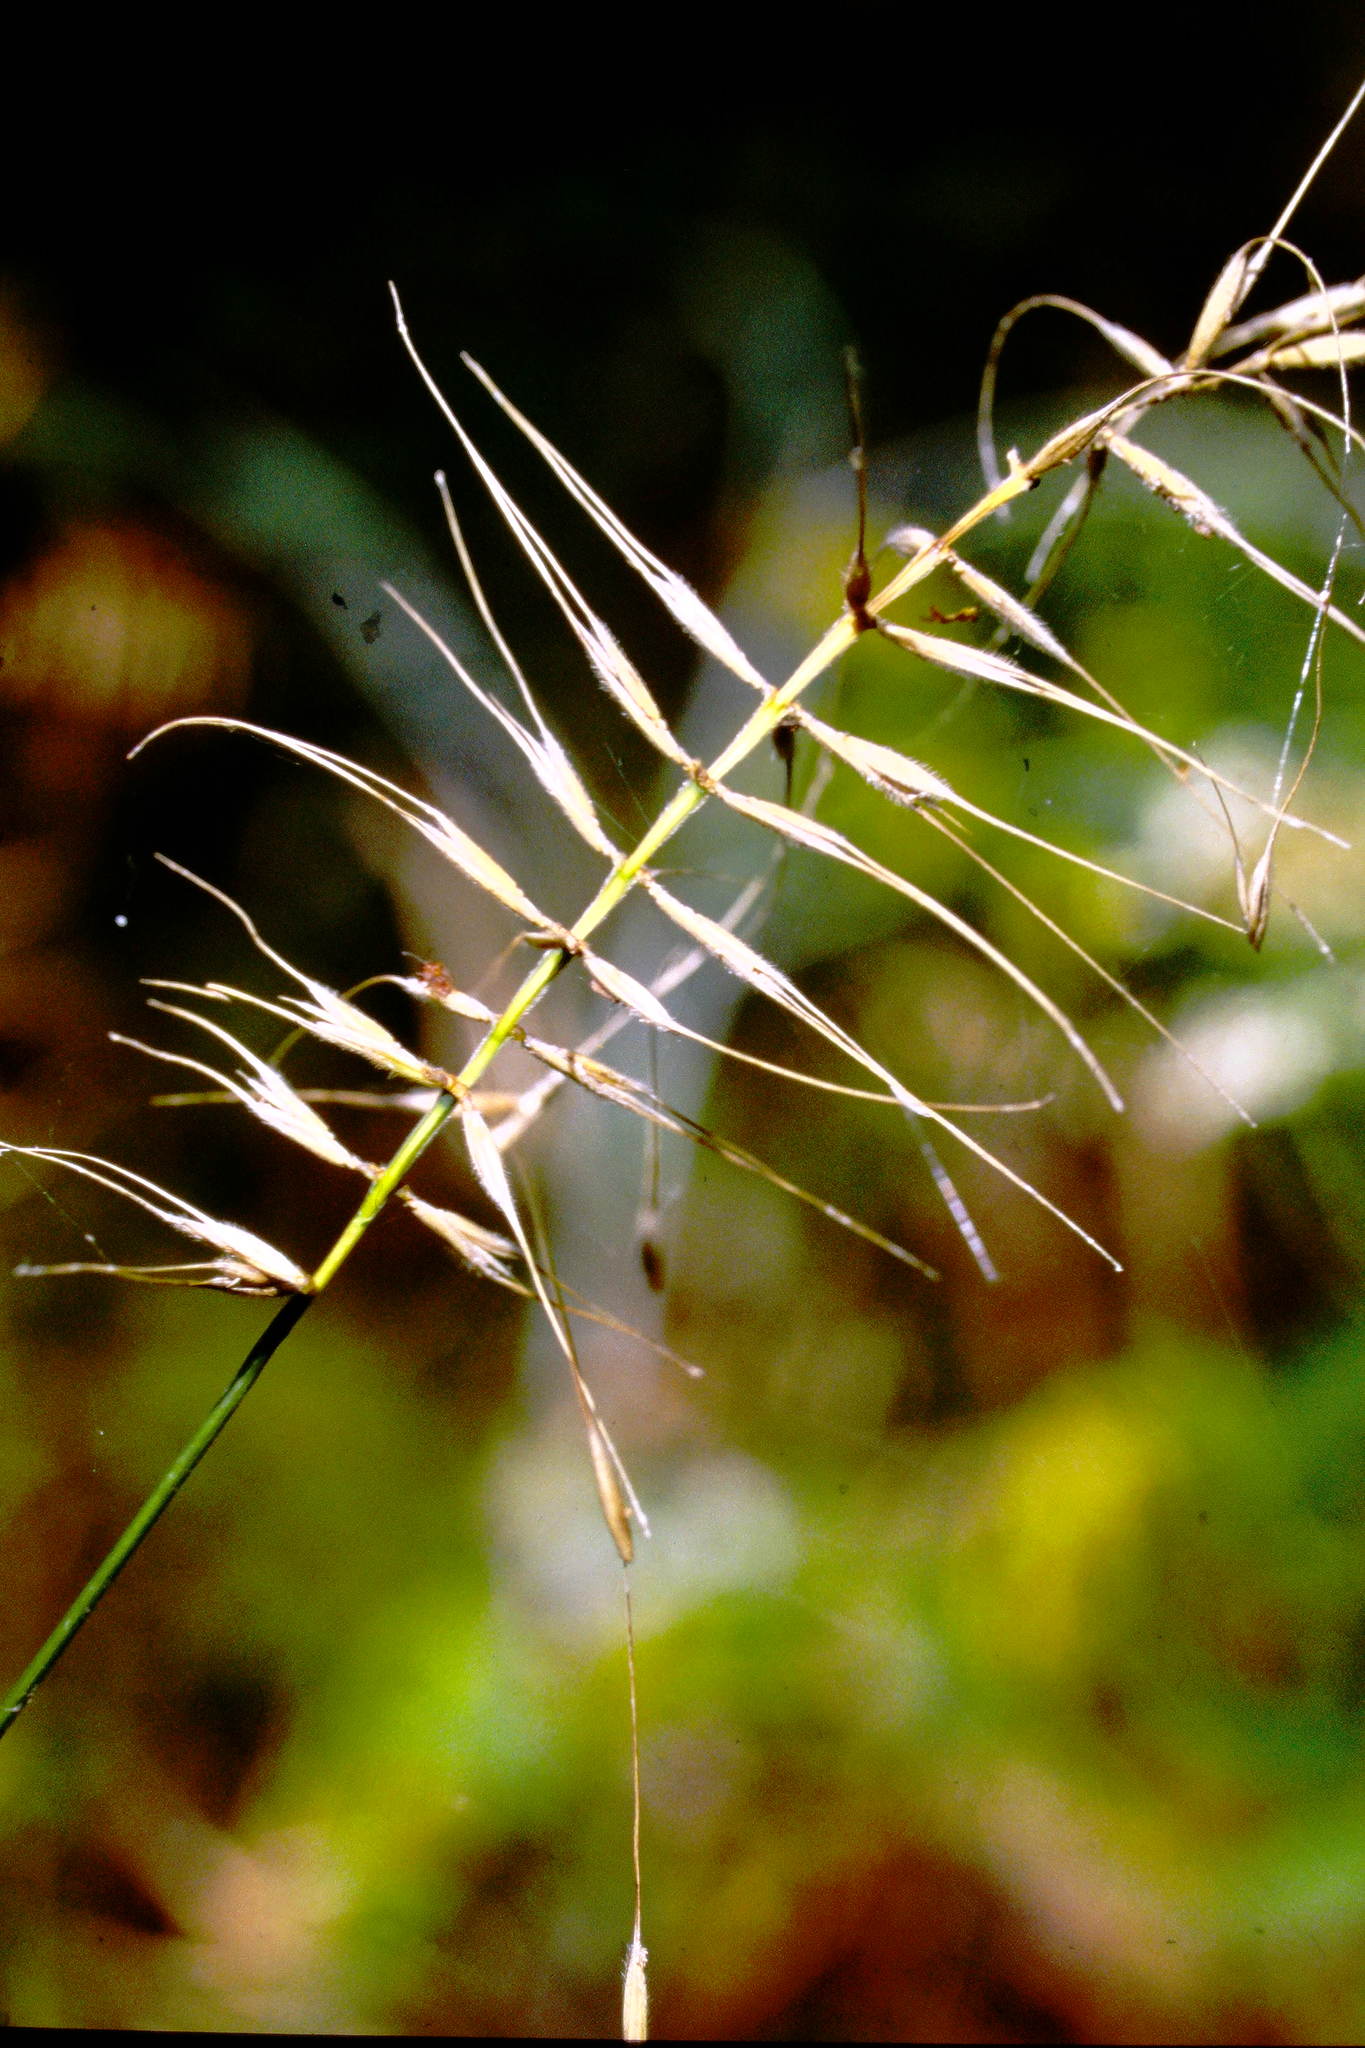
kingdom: Plantae
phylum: Tracheophyta
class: Liliopsida
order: Poales
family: Poaceae
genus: Elymus
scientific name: Elymus hystrix
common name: Bottlebrush grass
